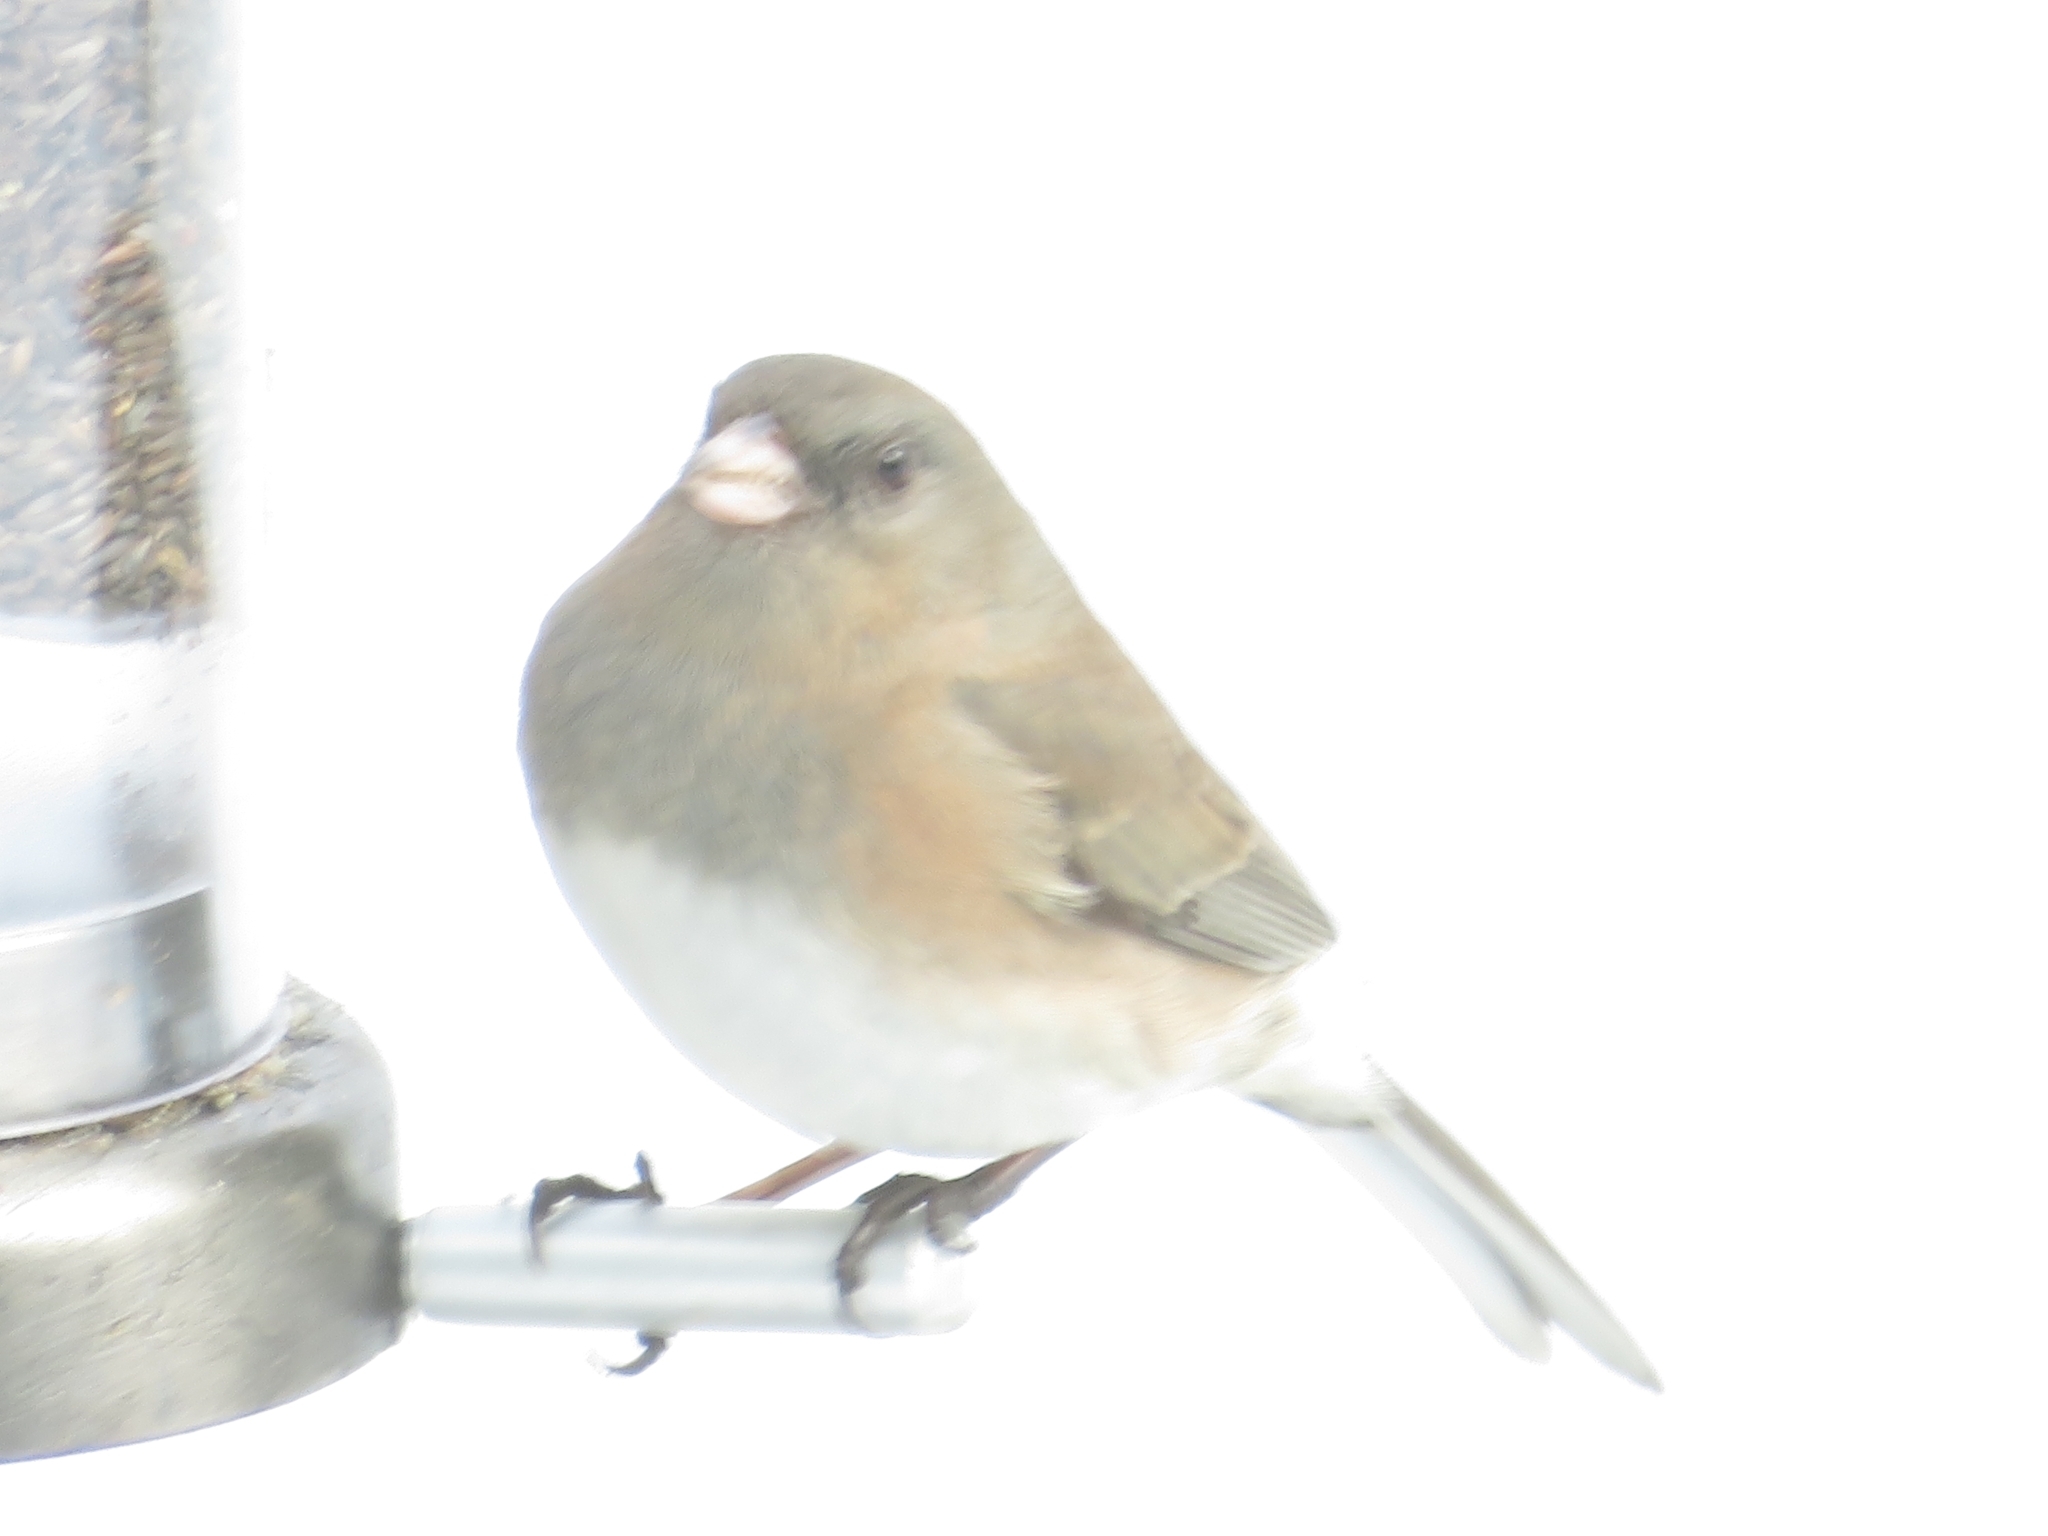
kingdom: Animalia
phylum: Chordata
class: Aves
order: Passeriformes
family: Passerellidae
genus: Junco
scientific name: Junco hyemalis
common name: Dark-eyed junco
